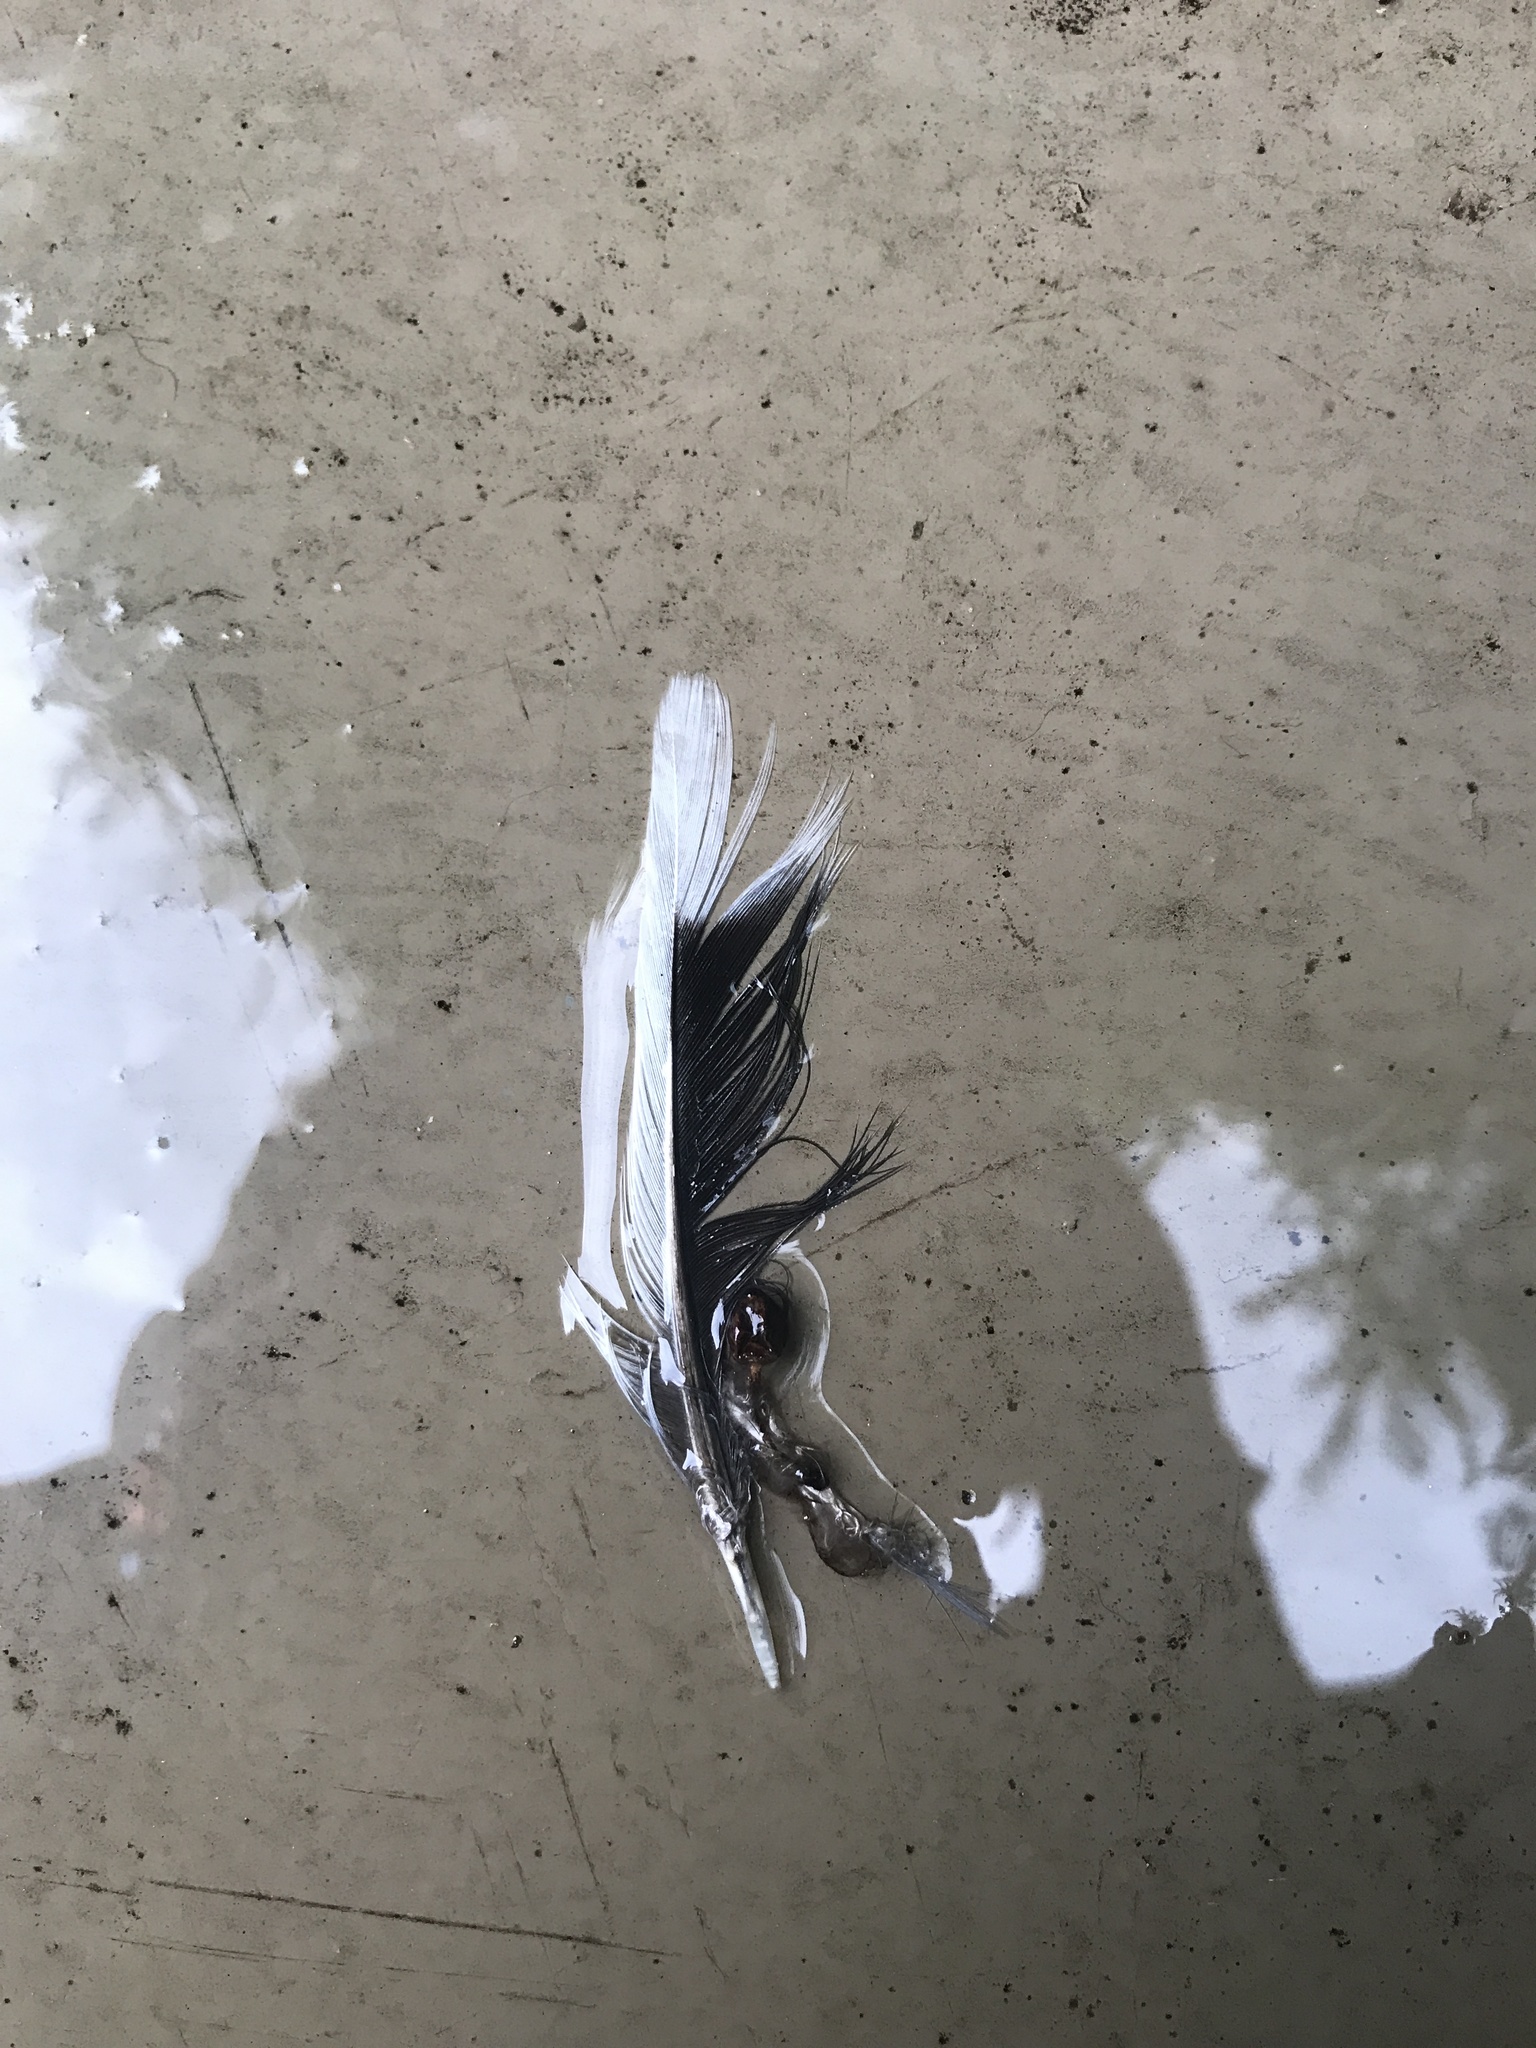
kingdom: Animalia
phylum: Chordata
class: Aves
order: Columbiformes
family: Columbidae
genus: Zenaida
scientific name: Zenaida macroura
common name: Mourning dove
